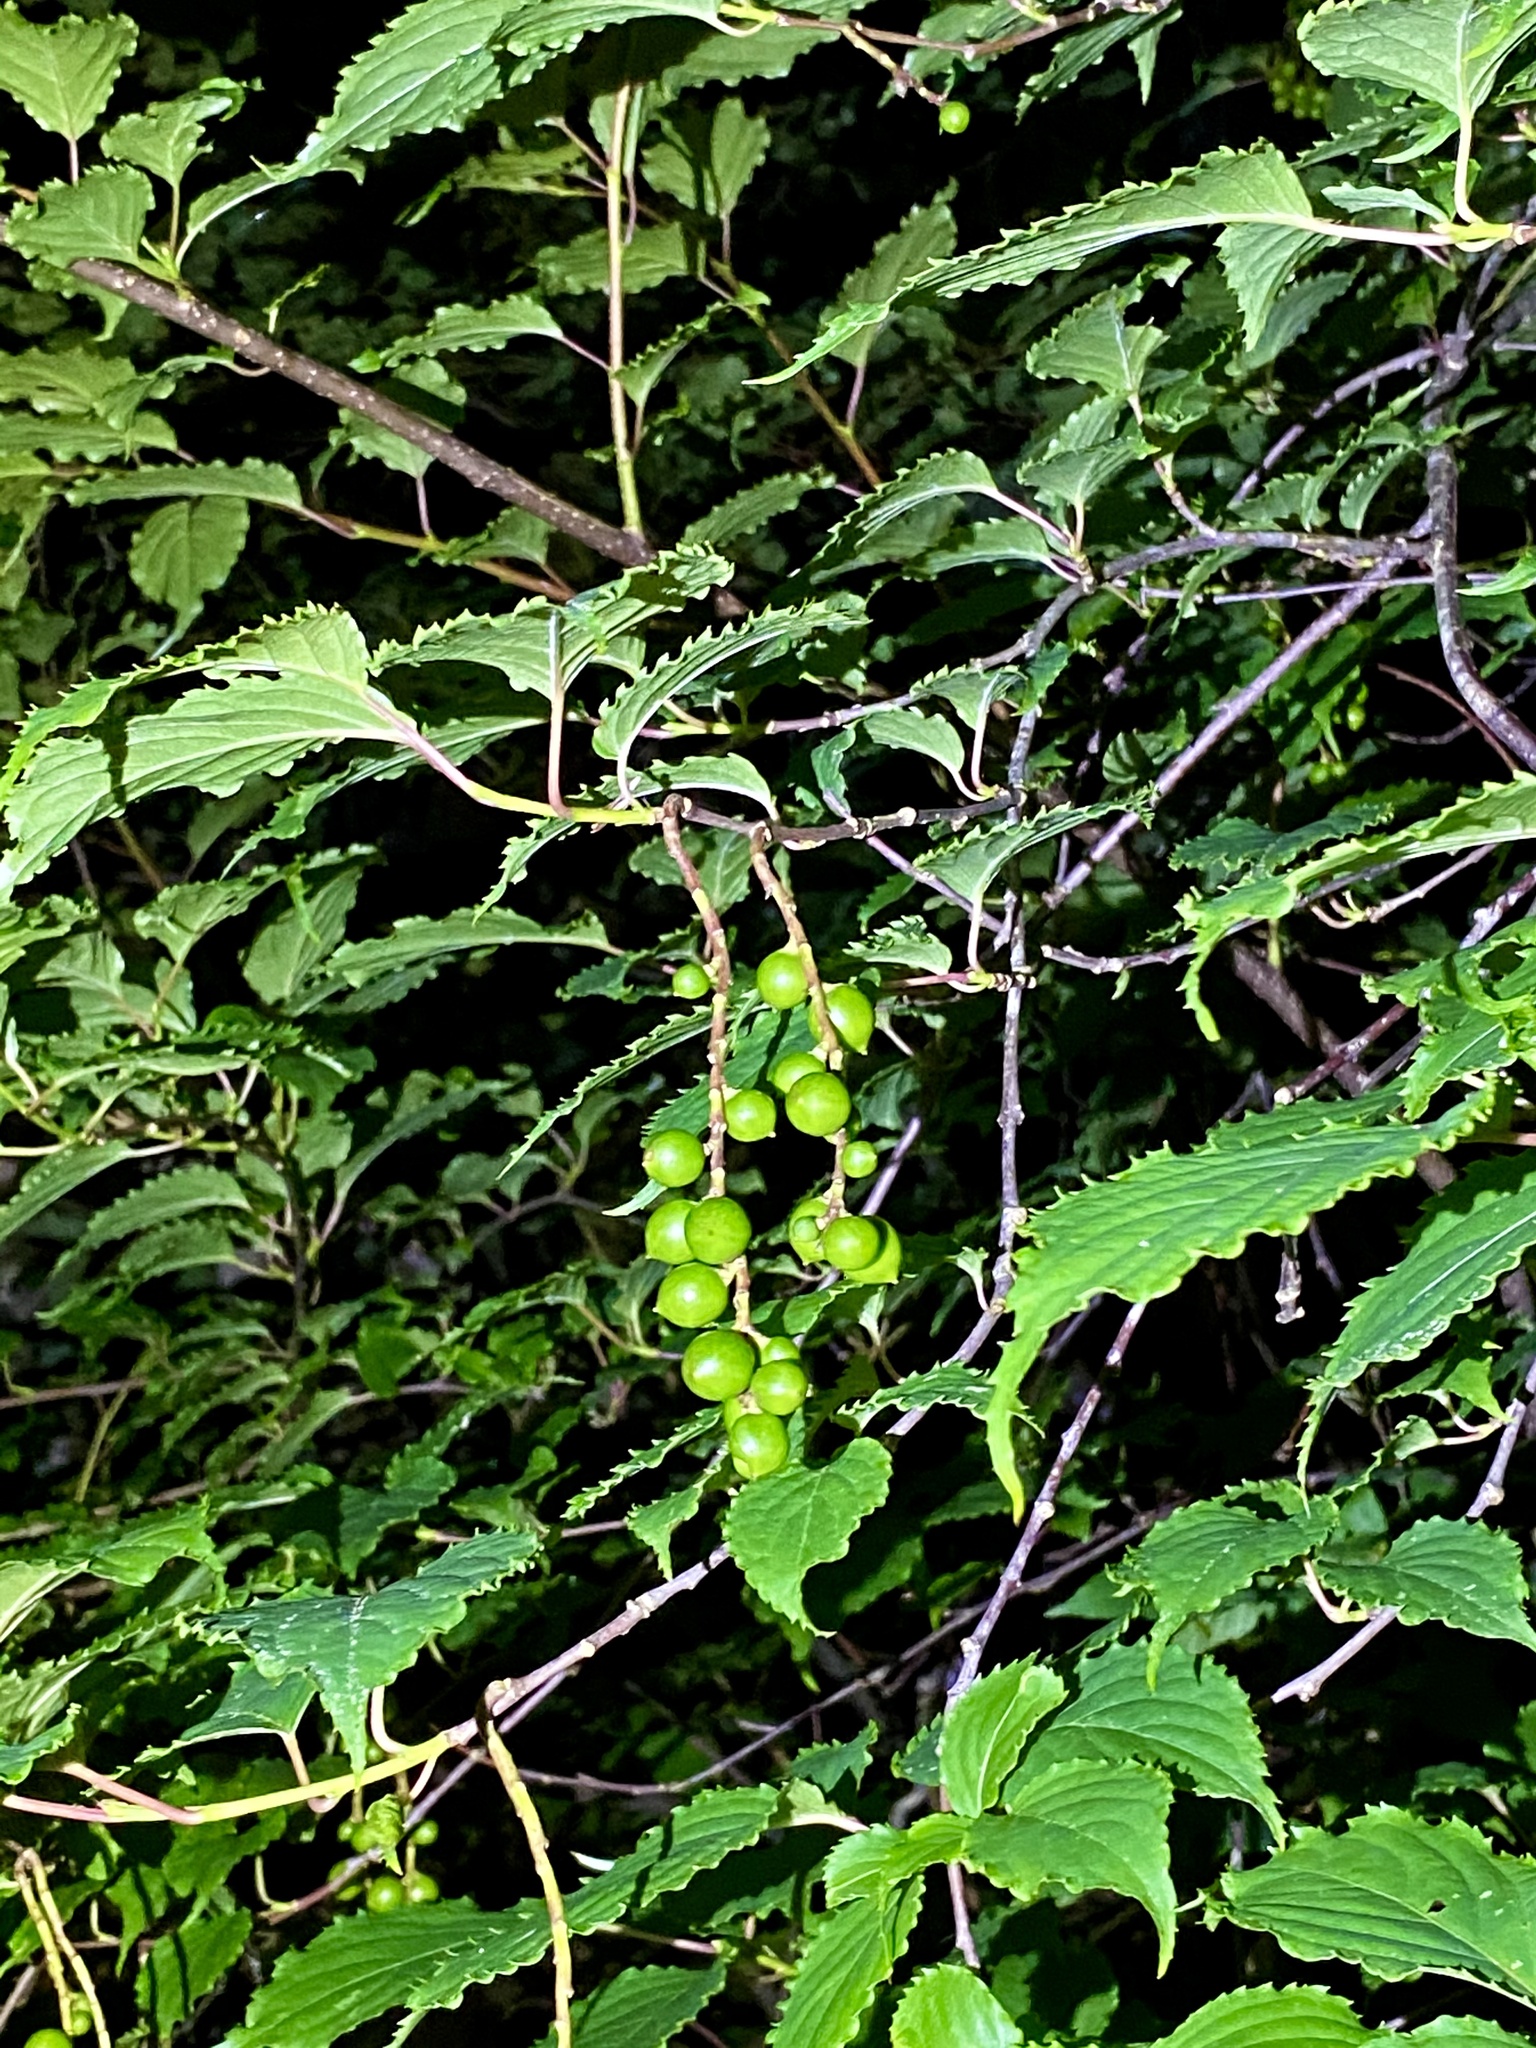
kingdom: Plantae
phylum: Tracheophyta
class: Magnoliopsida
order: Crossosomatales
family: Stachyuraceae
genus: Stachyurus
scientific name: Stachyurus praecox
